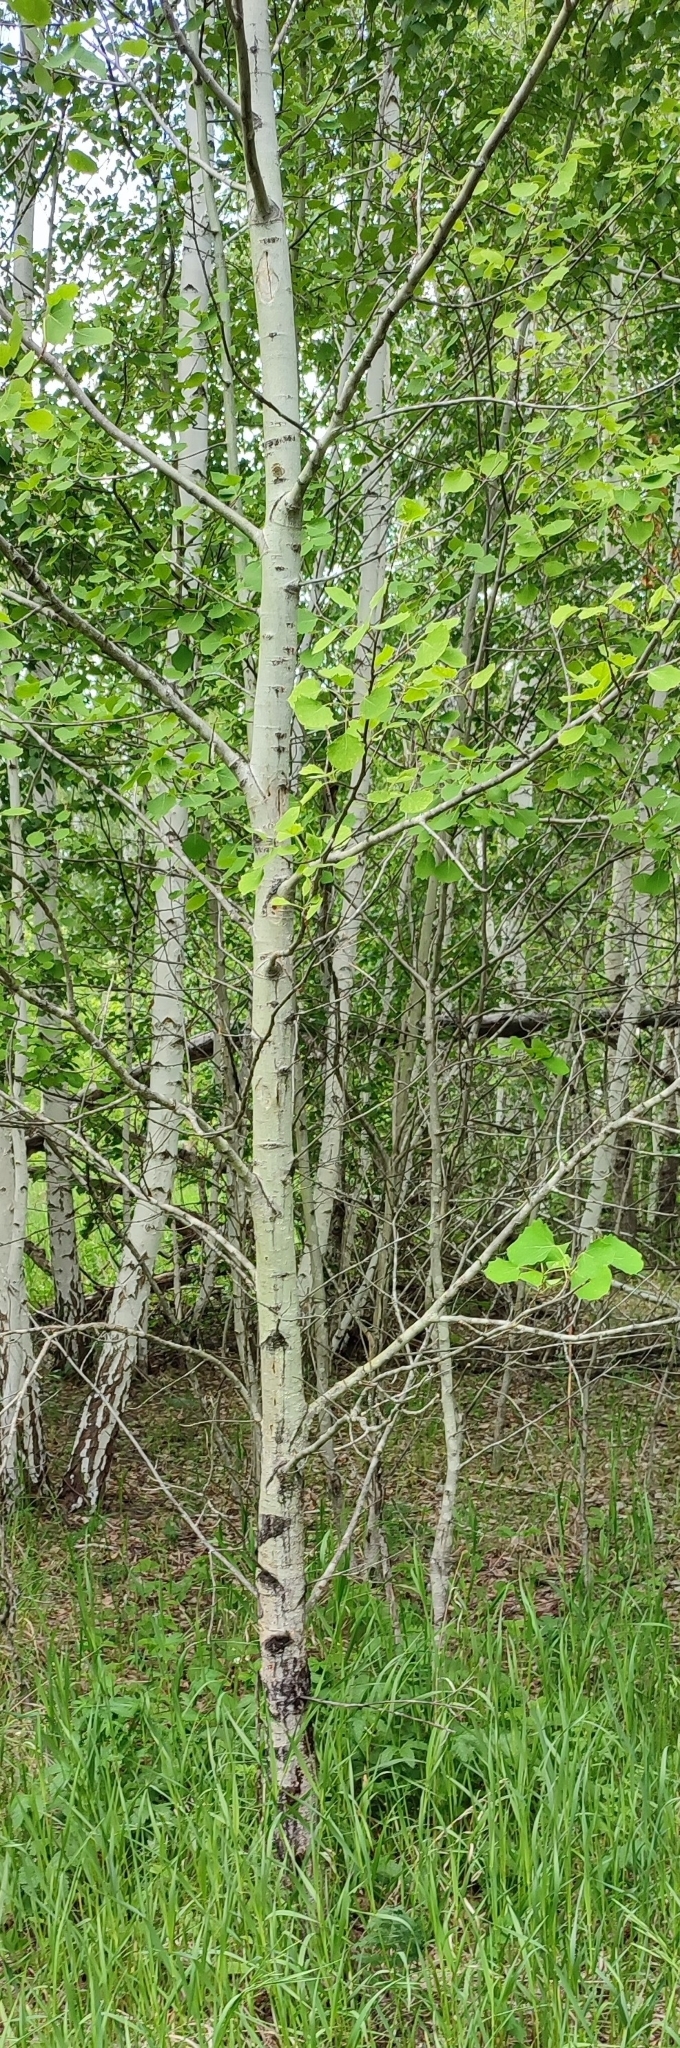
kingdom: Plantae
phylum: Tracheophyta
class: Magnoliopsida
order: Malpighiales
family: Salicaceae
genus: Populus
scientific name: Populus tremula
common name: European aspen
